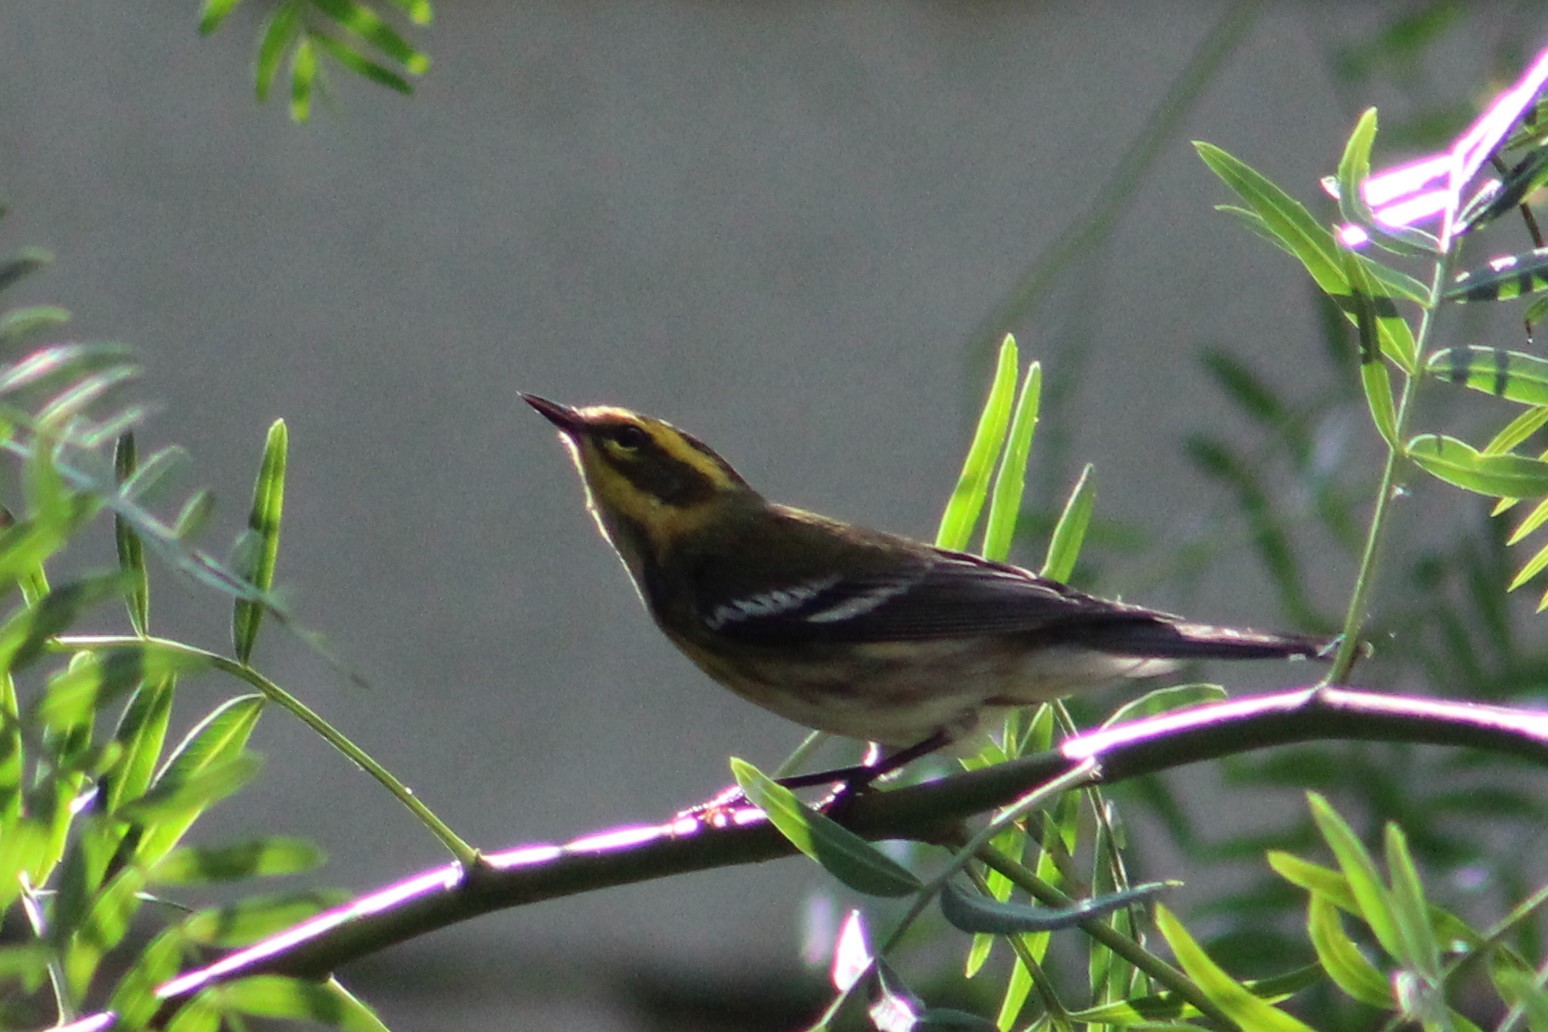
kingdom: Animalia
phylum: Chordata
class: Aves
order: Passeriformes
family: Parulidae
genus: Setophaga
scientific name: Setophaga townsendi
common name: Townsend's warbler
